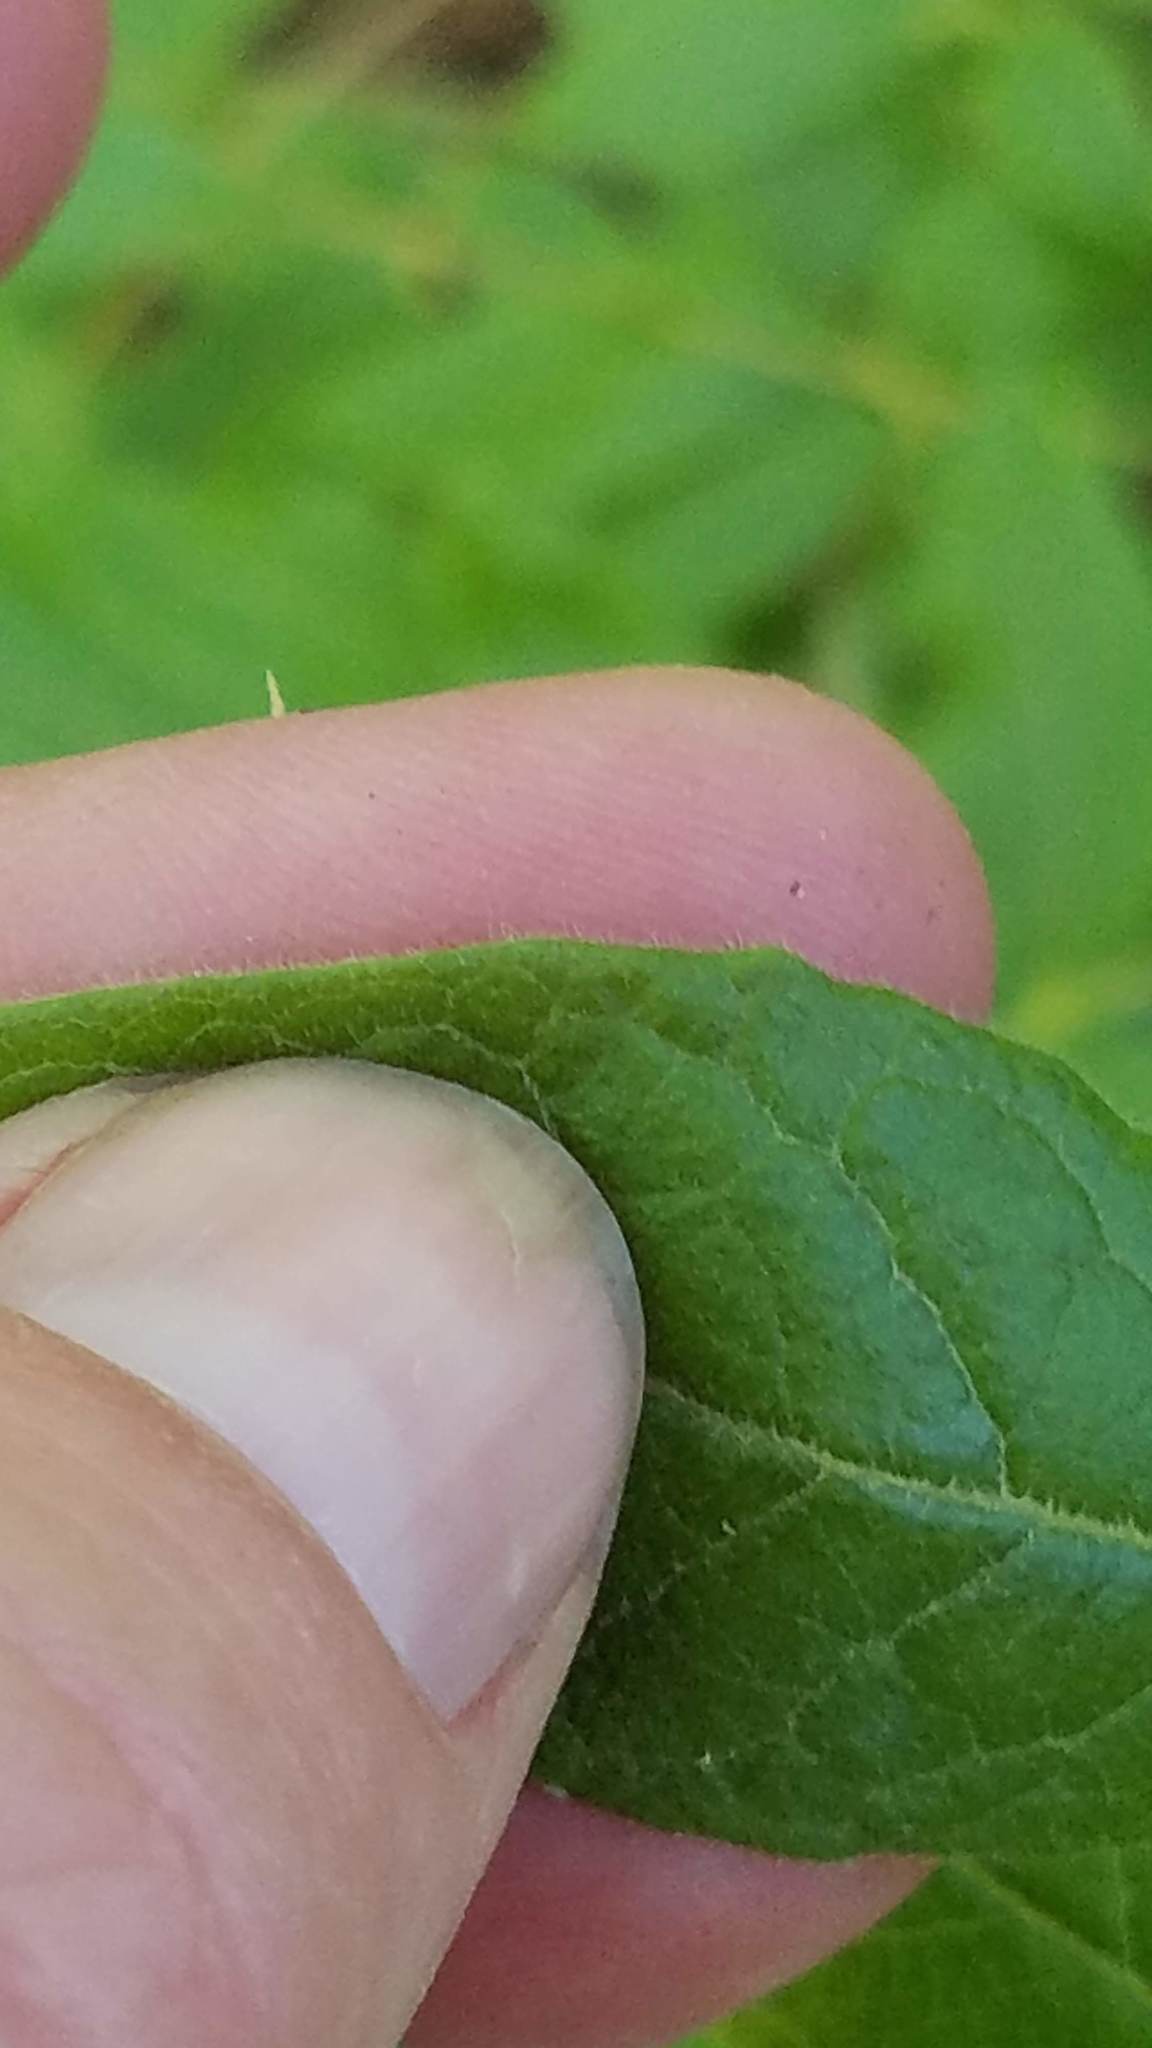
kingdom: Plantae
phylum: Tracheophyta
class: Magnoliopsida
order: Ericales
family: Ericaceae
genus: Vaccinium
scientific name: Vaccinium myrtilloides
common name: Canada blueberry
